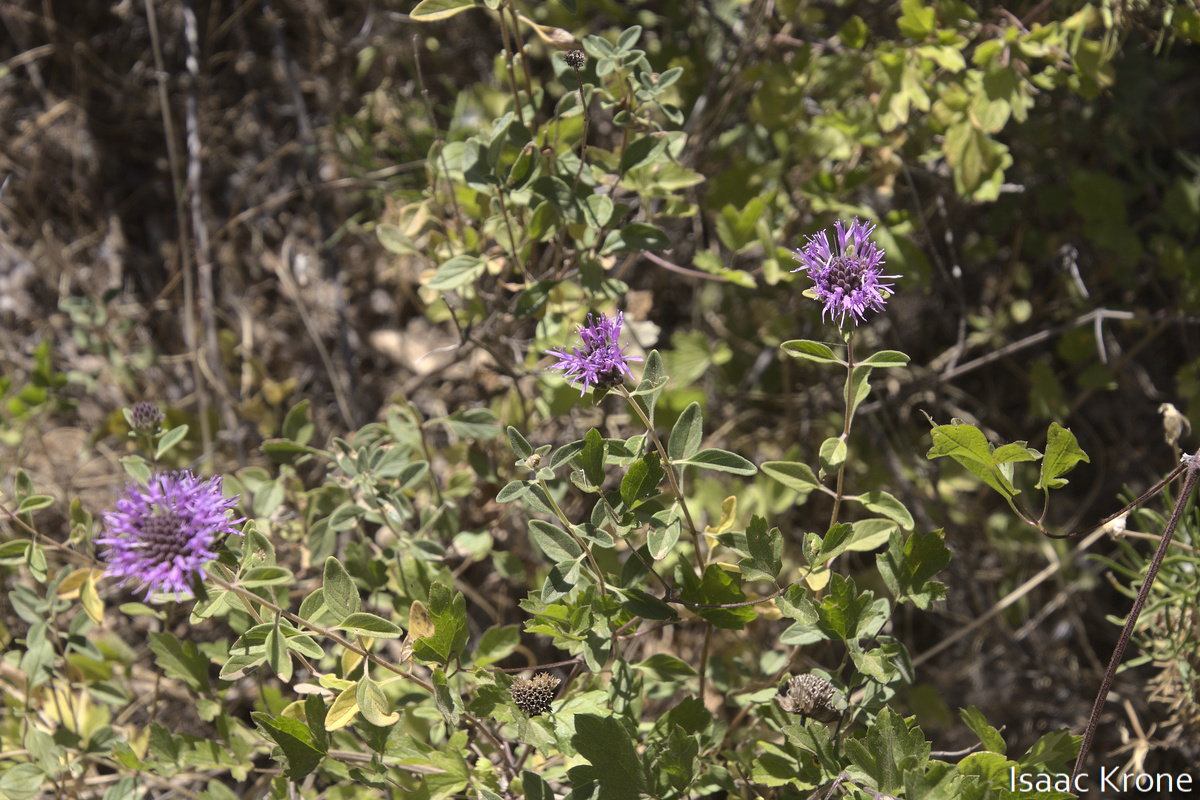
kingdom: Plantae
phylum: Tracheophyta
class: Magnoliopsida
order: Lamiales
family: Lamiaceae
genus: Monardella
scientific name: Monardella odoratissima
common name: Pacific monardella
